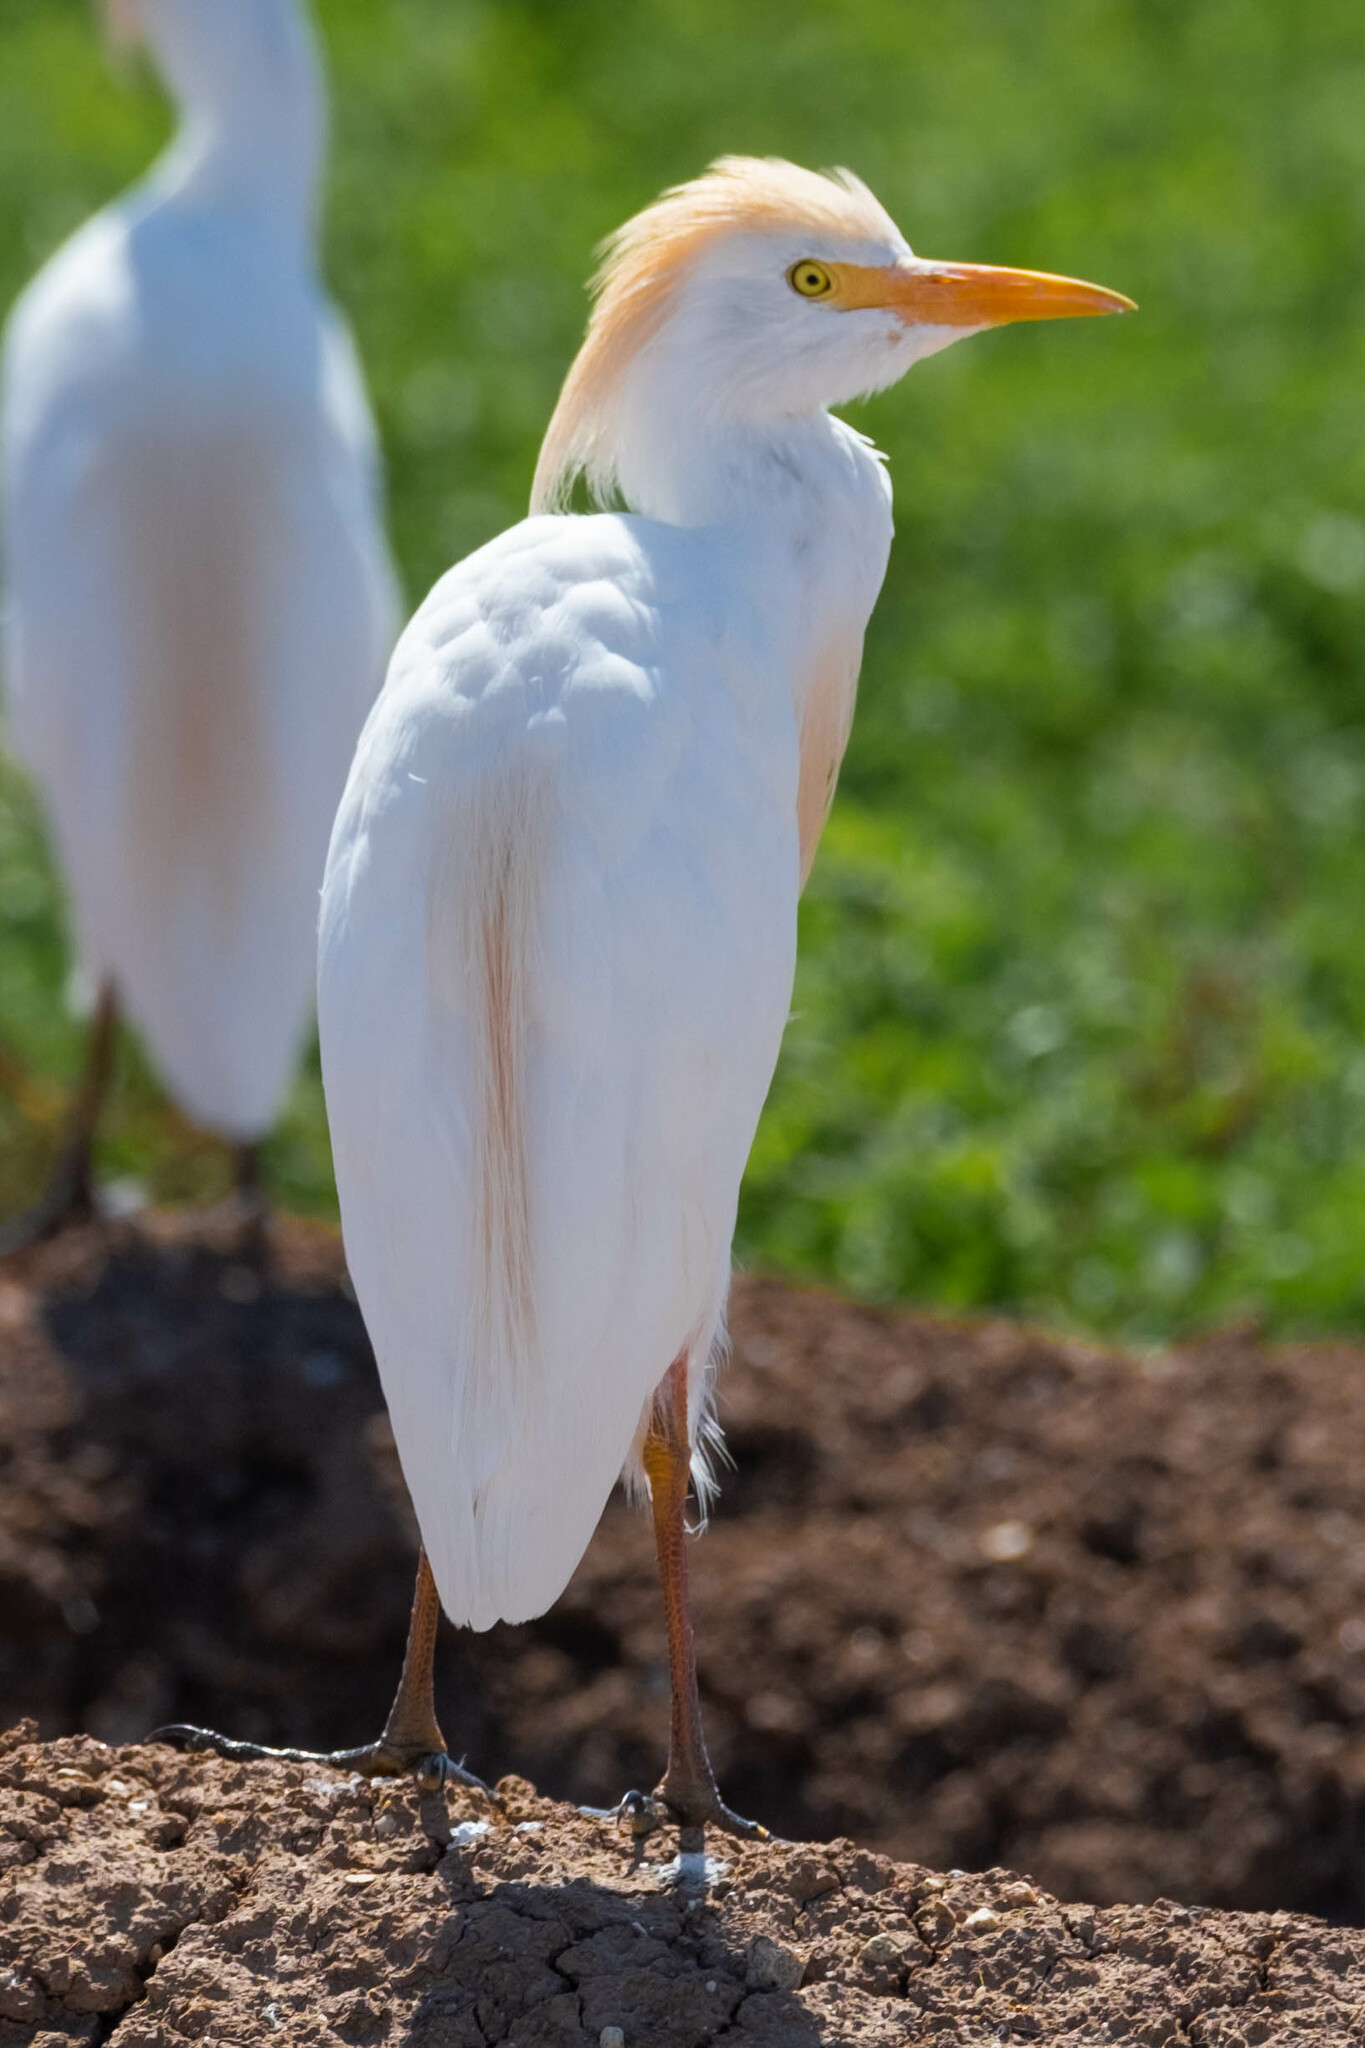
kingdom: Animalia
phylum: Chordata
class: Aves
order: Pelecaniformes
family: Ardeidae
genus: Bubulcus
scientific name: Bubulcus ibis
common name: Cattle egret
